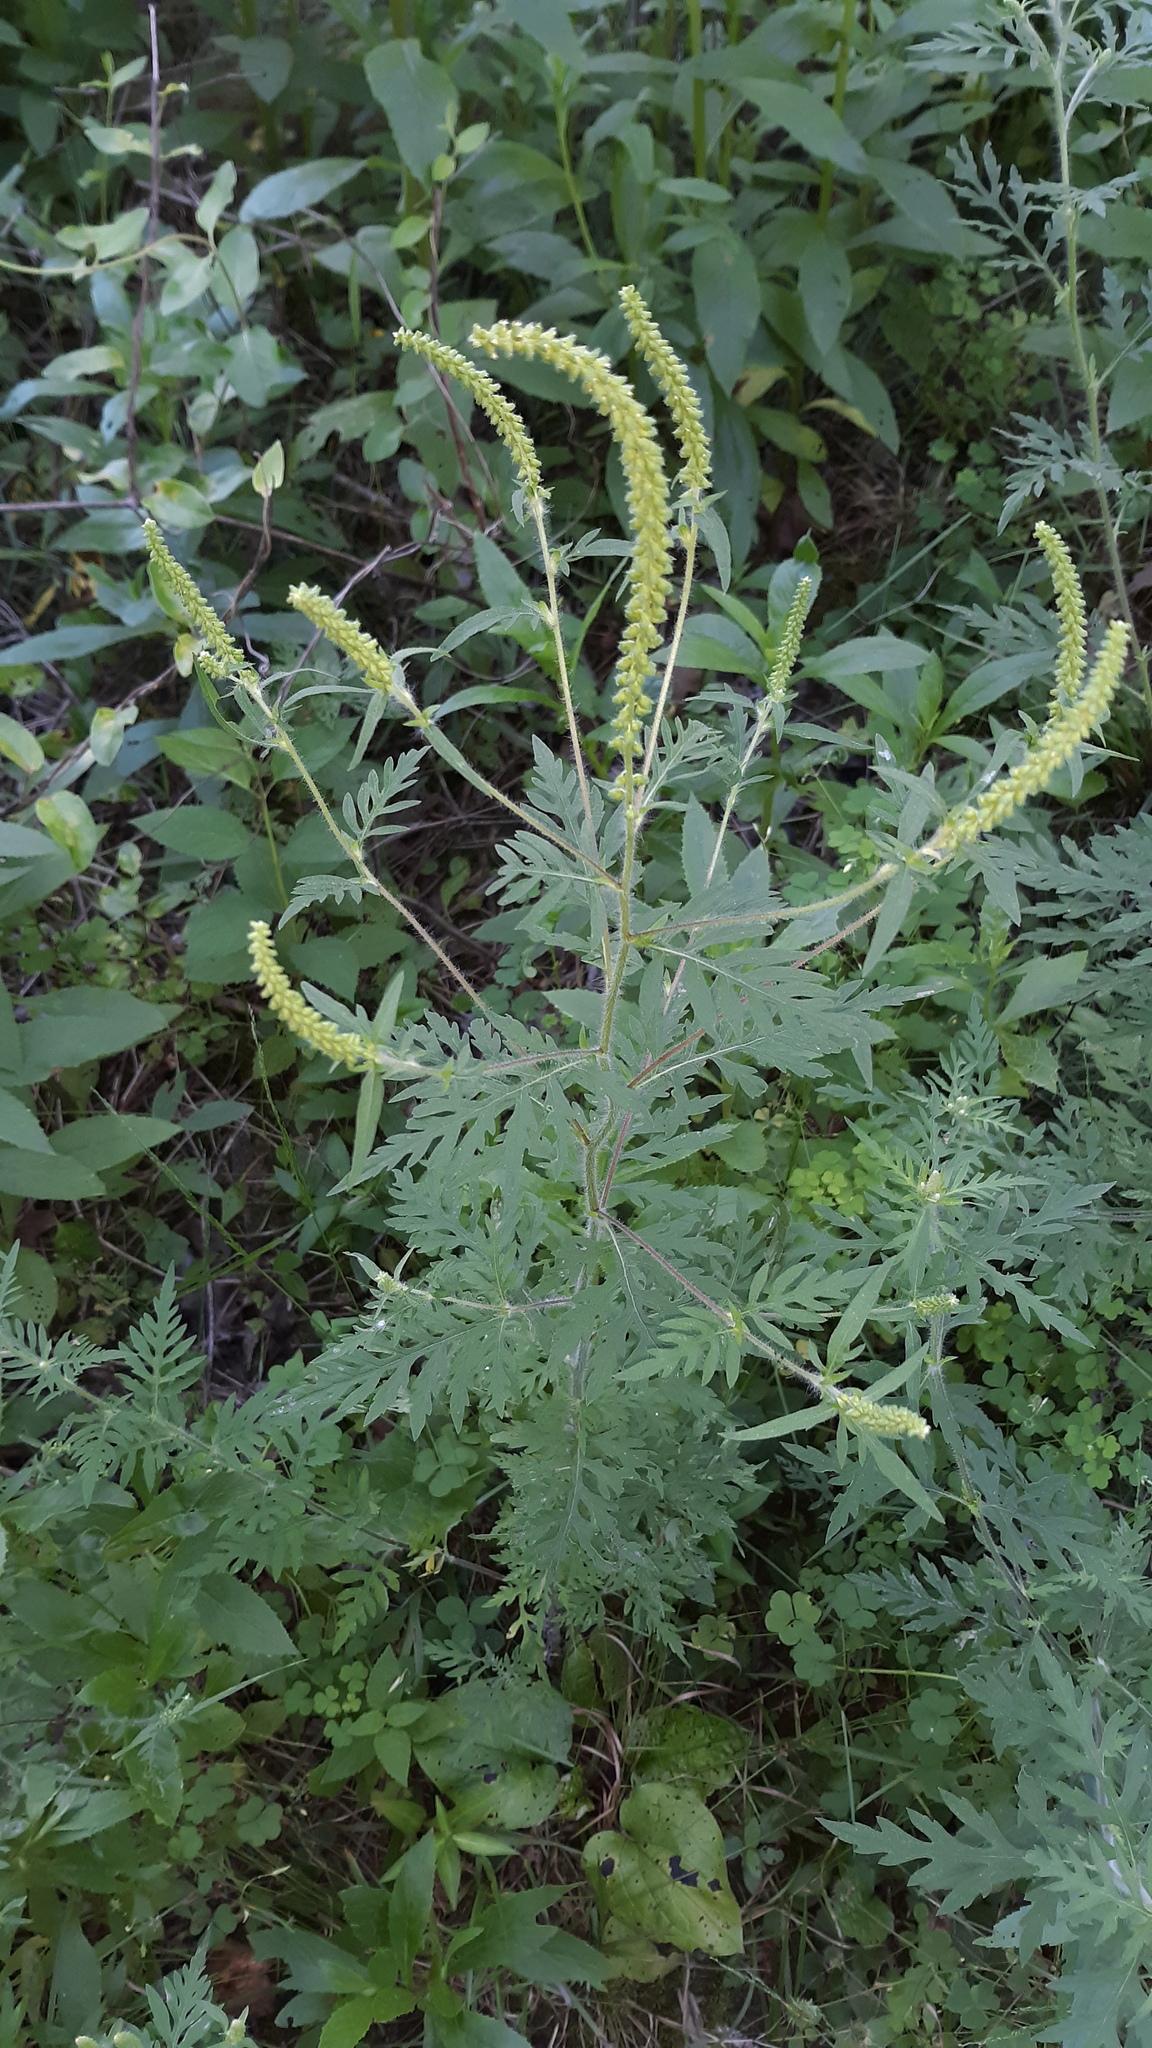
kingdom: Plantae
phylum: Tracheophyta
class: Magnoliopsida
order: Asterales
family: Asteraceae
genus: Ambrosia
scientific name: Ambrosia artemisiifolia
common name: Annual ragweed
